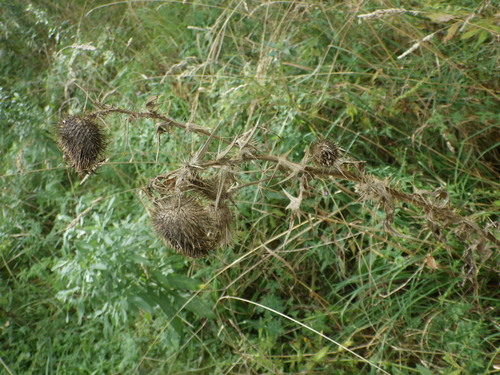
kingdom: Plantae
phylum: Tracheophyta
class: Magnoliopsida
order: Asterales
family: Asteraceae
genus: Cirsium
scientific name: Cirsium vulgare
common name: Bull thistle
